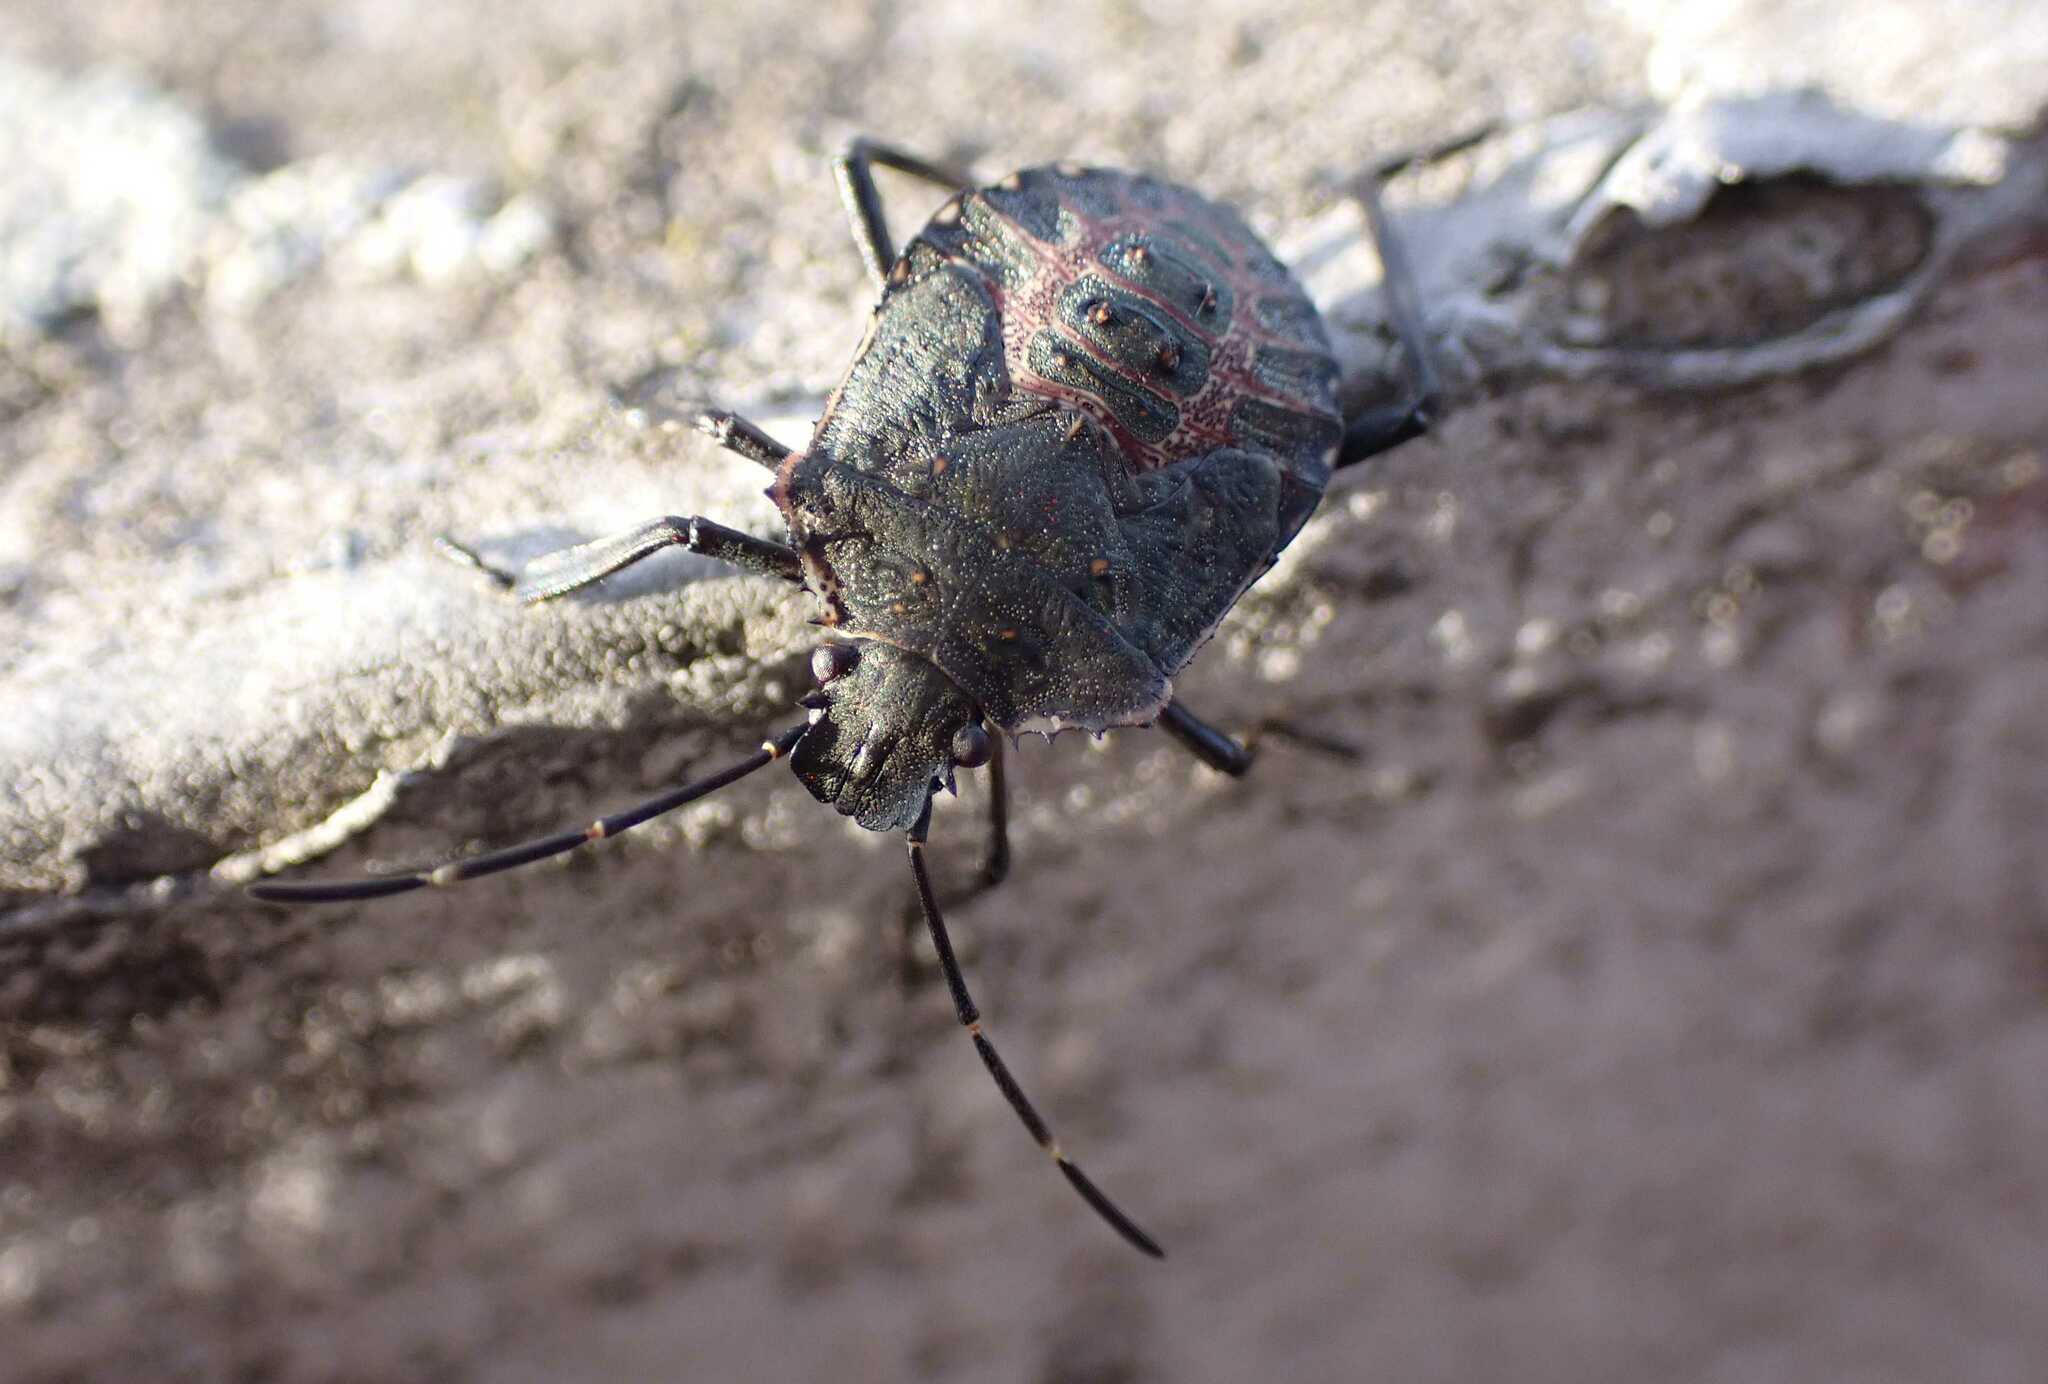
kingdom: Animalia
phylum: Arthropoda
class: Insecta
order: Hemiptera
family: Pentatomidae
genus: Halyomorpha
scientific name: Halyomorpha halys
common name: Brown marmorated stink bug
